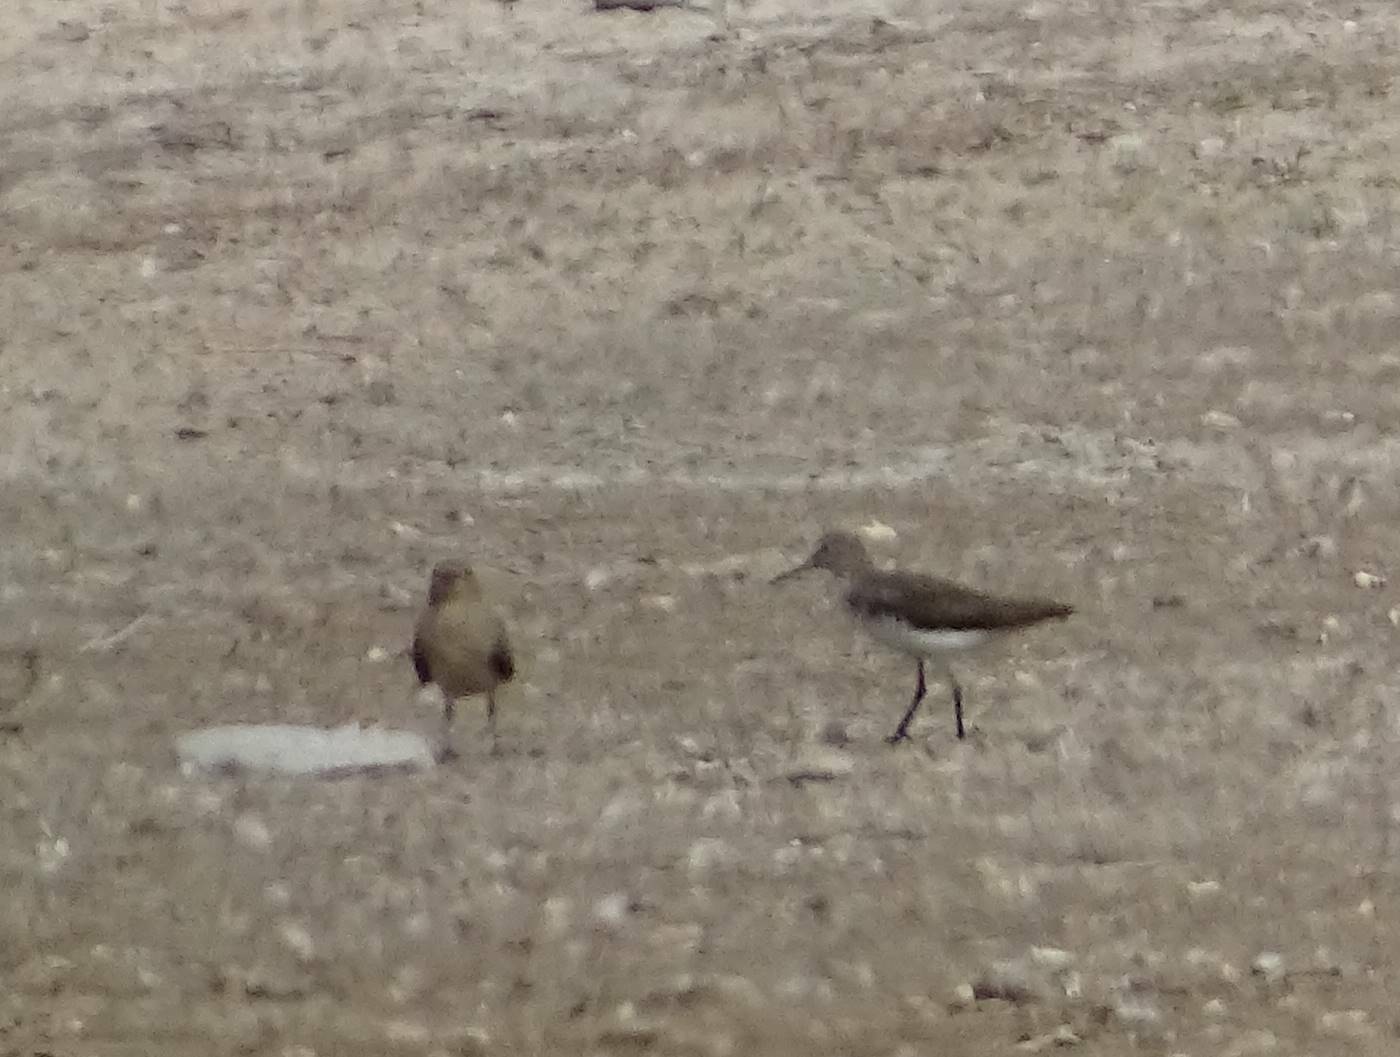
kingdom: Animalia
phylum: Chordata
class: Aves
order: Charadriiformes
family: Scolopacidae
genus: Tringa
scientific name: Tringa ochropus
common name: Green sandpiper
